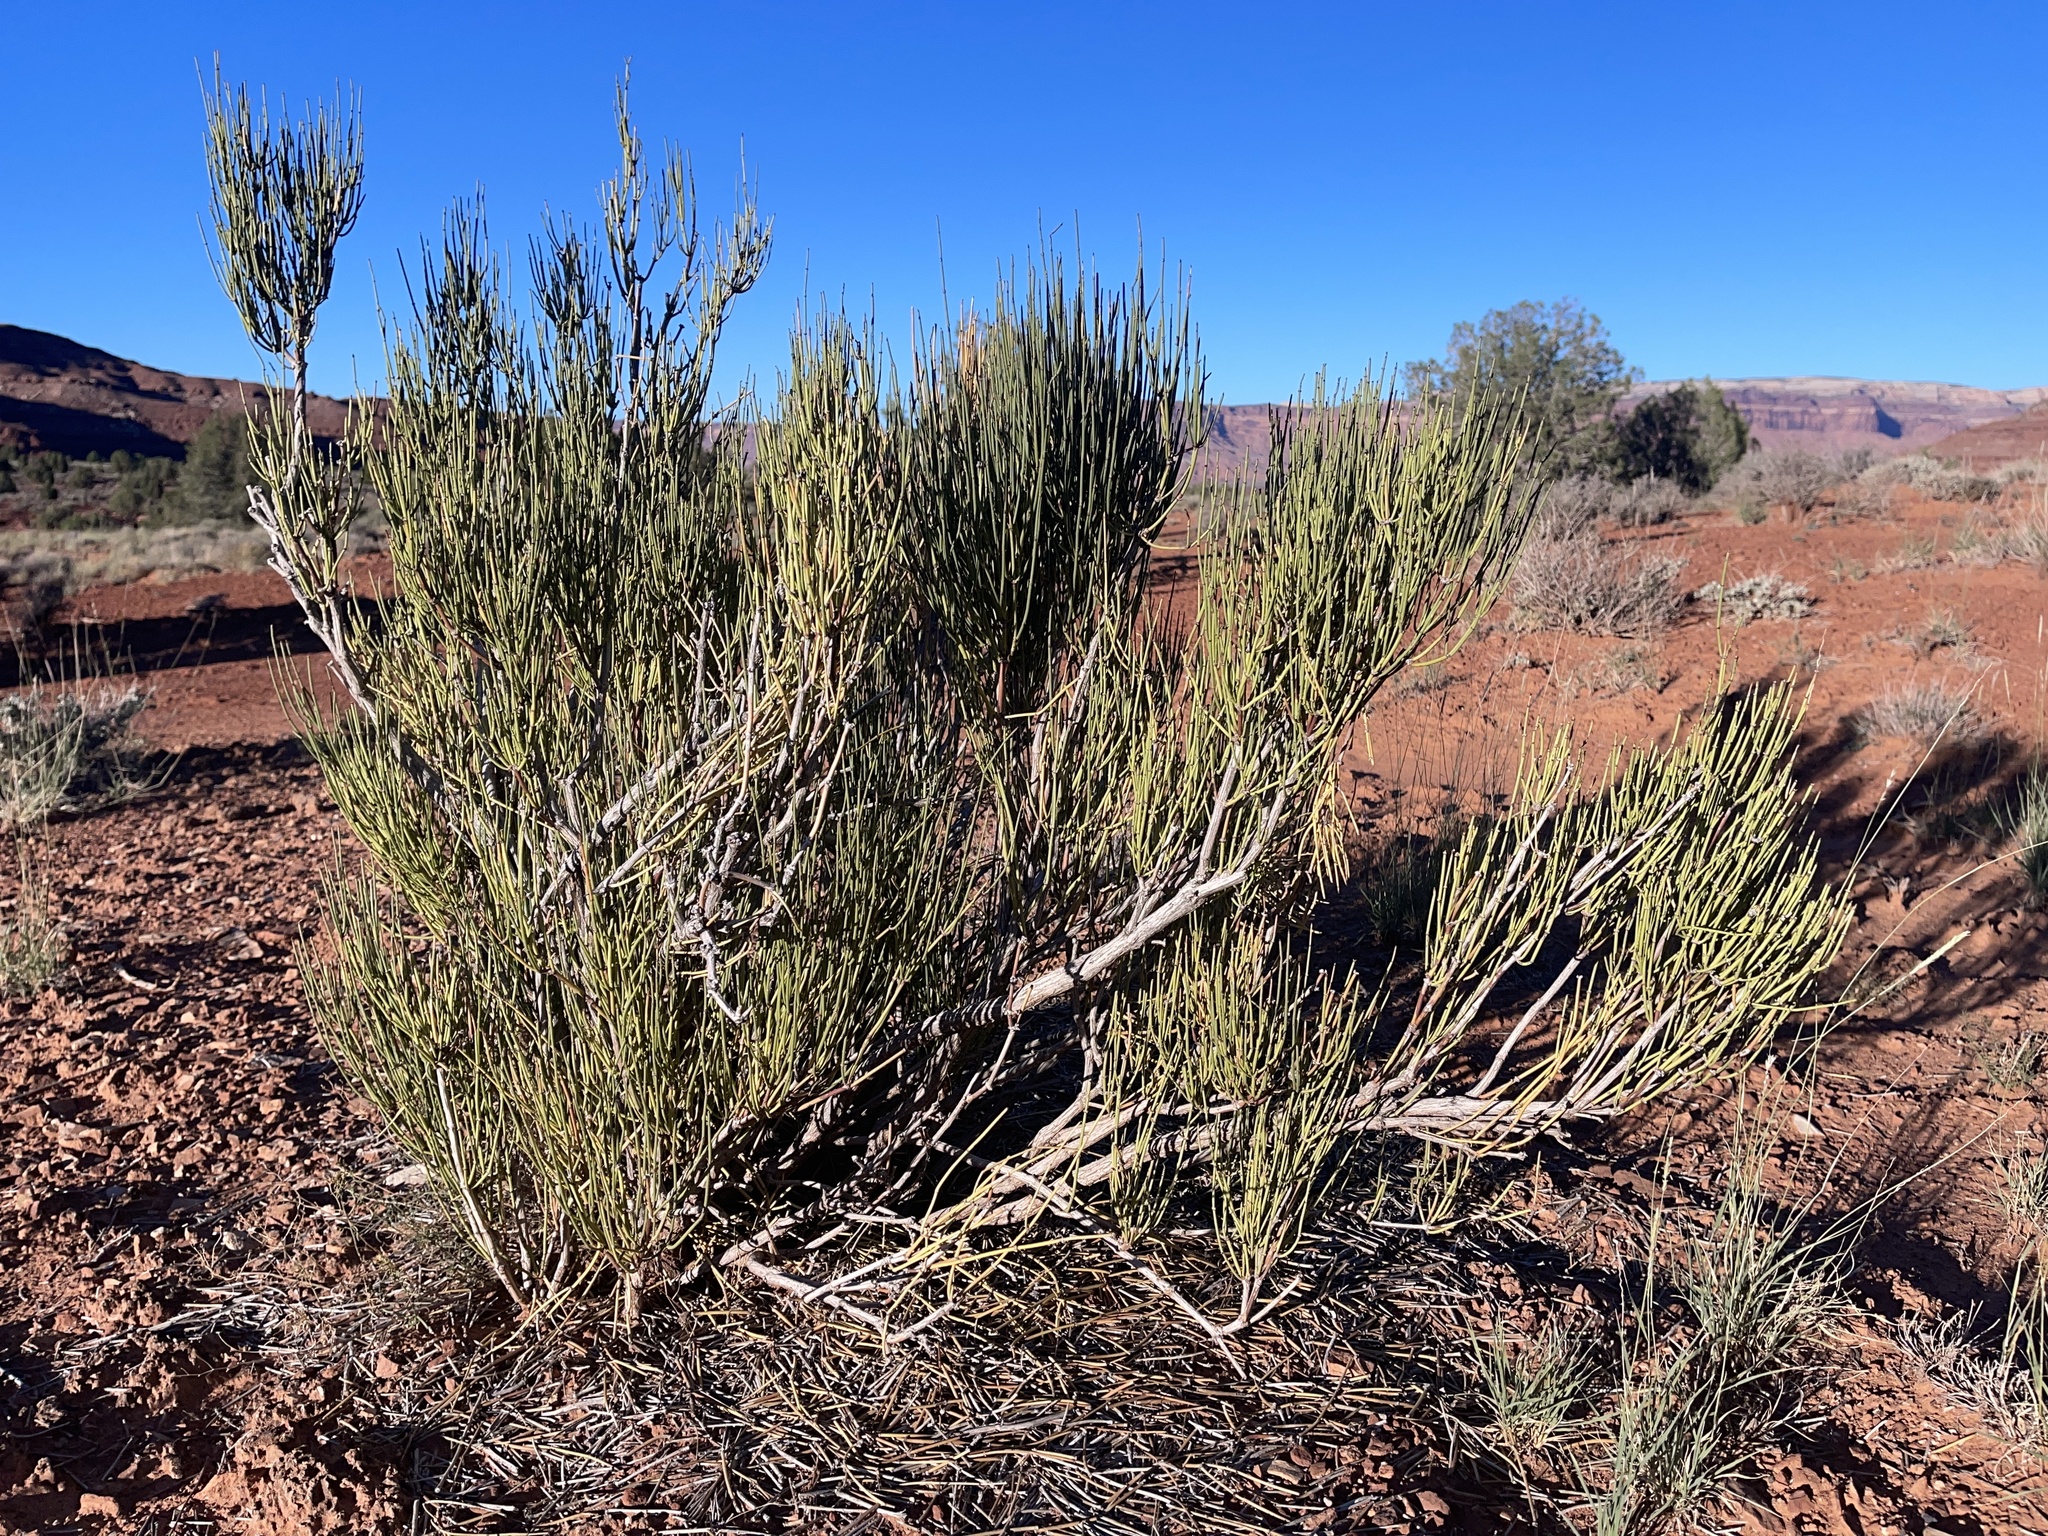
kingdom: Plantae
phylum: Tracheophyta
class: Gnetopsida
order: Ephedrales
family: Ephedraceae
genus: Ephedra
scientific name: Ephedra viridis
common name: Green ephedra
